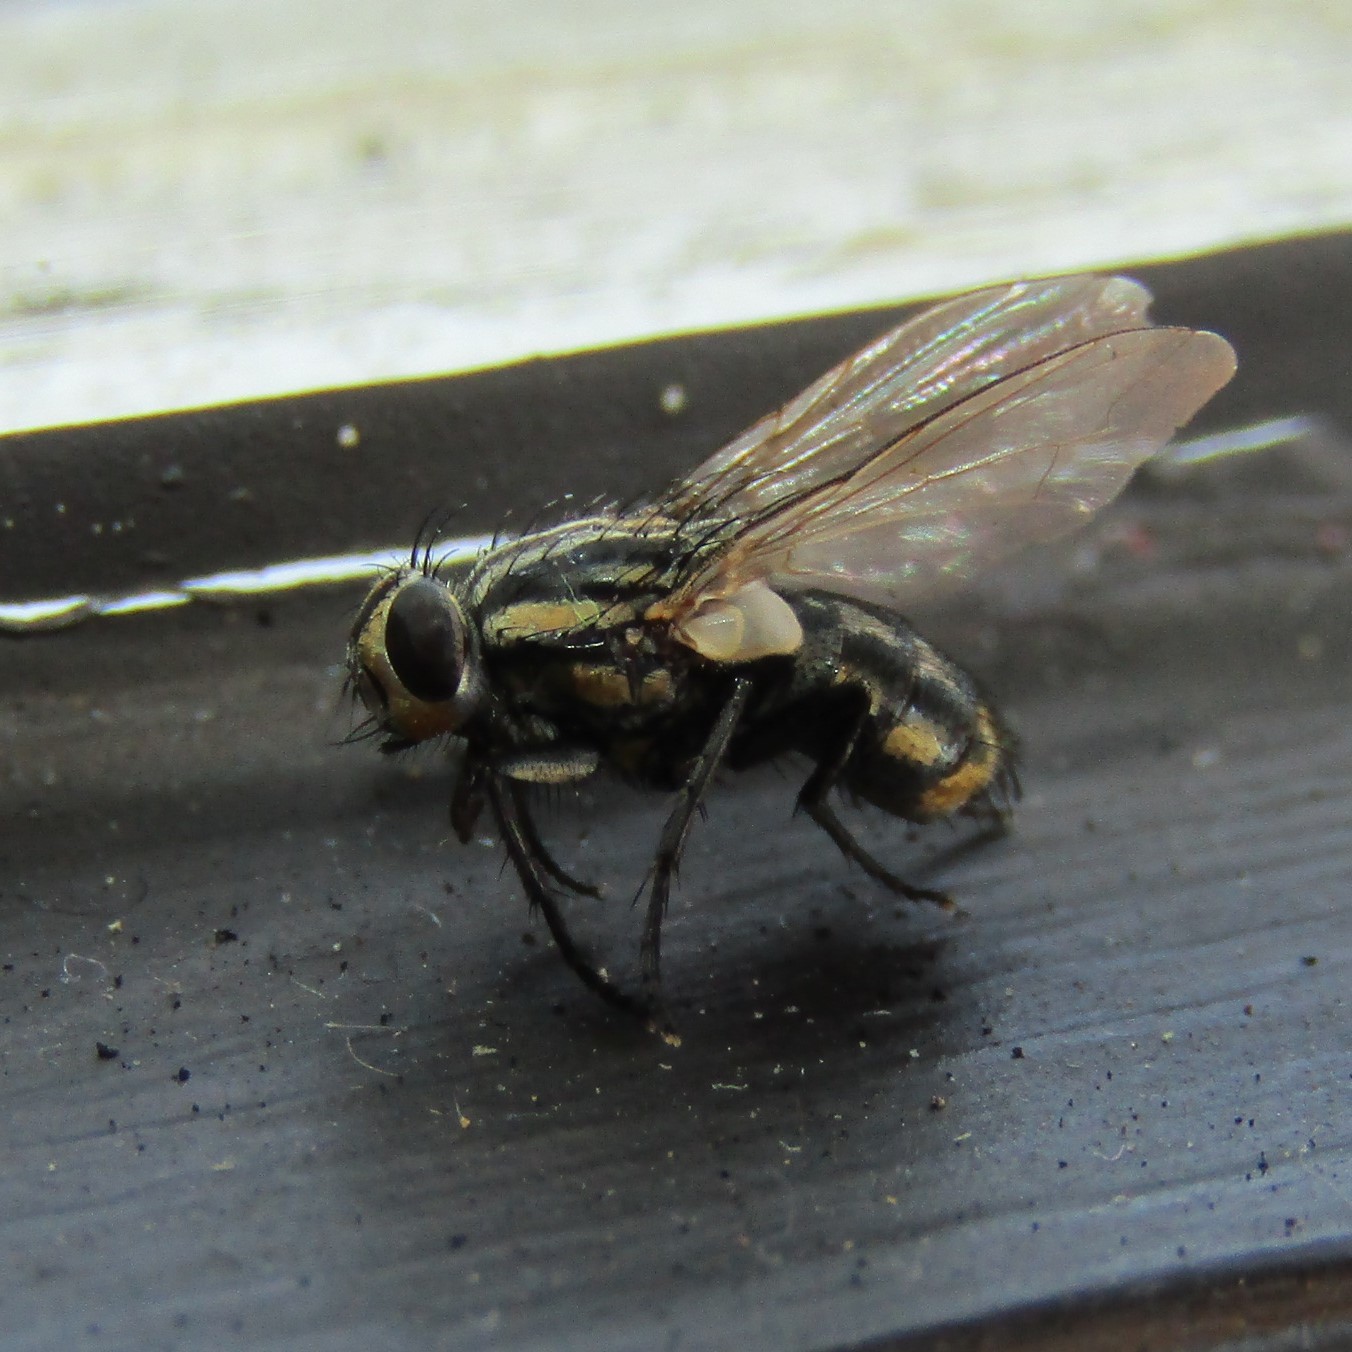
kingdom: Animalia
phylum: Arthropoda
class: Insecta
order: Diptera
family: Sarcophagidae
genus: Oxysarcodexia
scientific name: Oxysarcodexia varia
